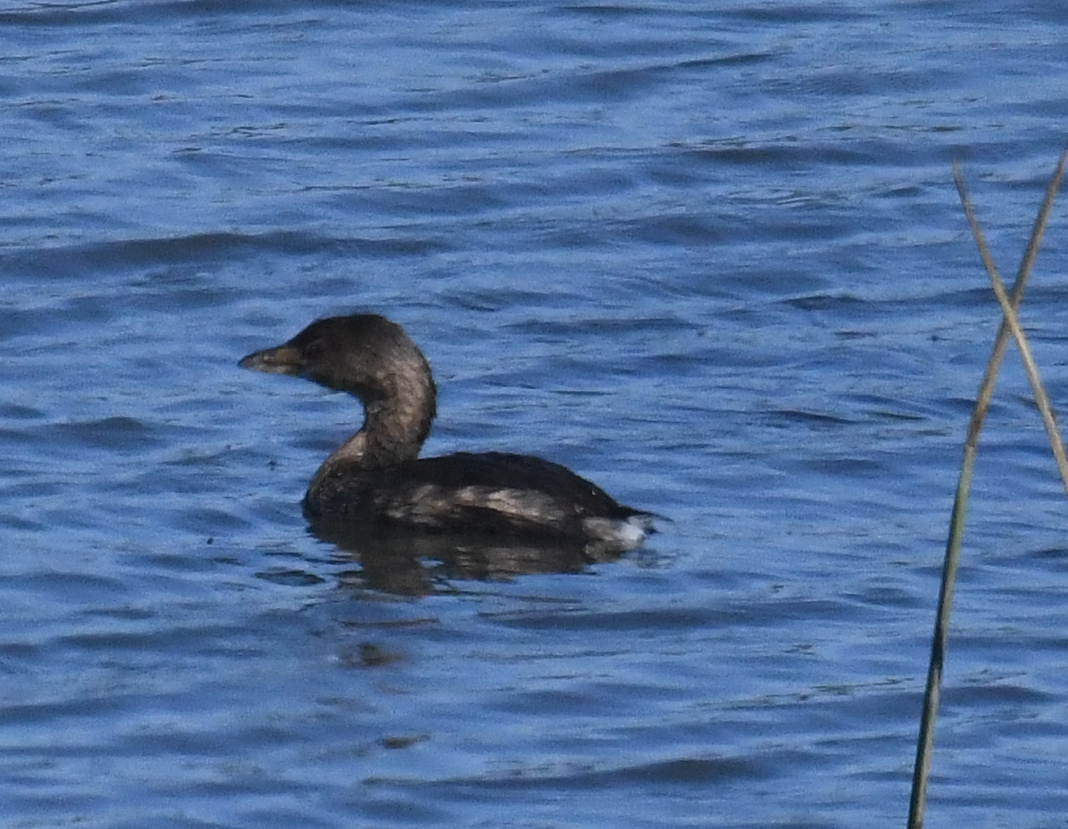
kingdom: Animalia
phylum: Chordata
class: Aves
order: Podicipediformes
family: Podicipedidae
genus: Podilymbus
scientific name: Podilymbus podiceps
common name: Pied-billed grebe
